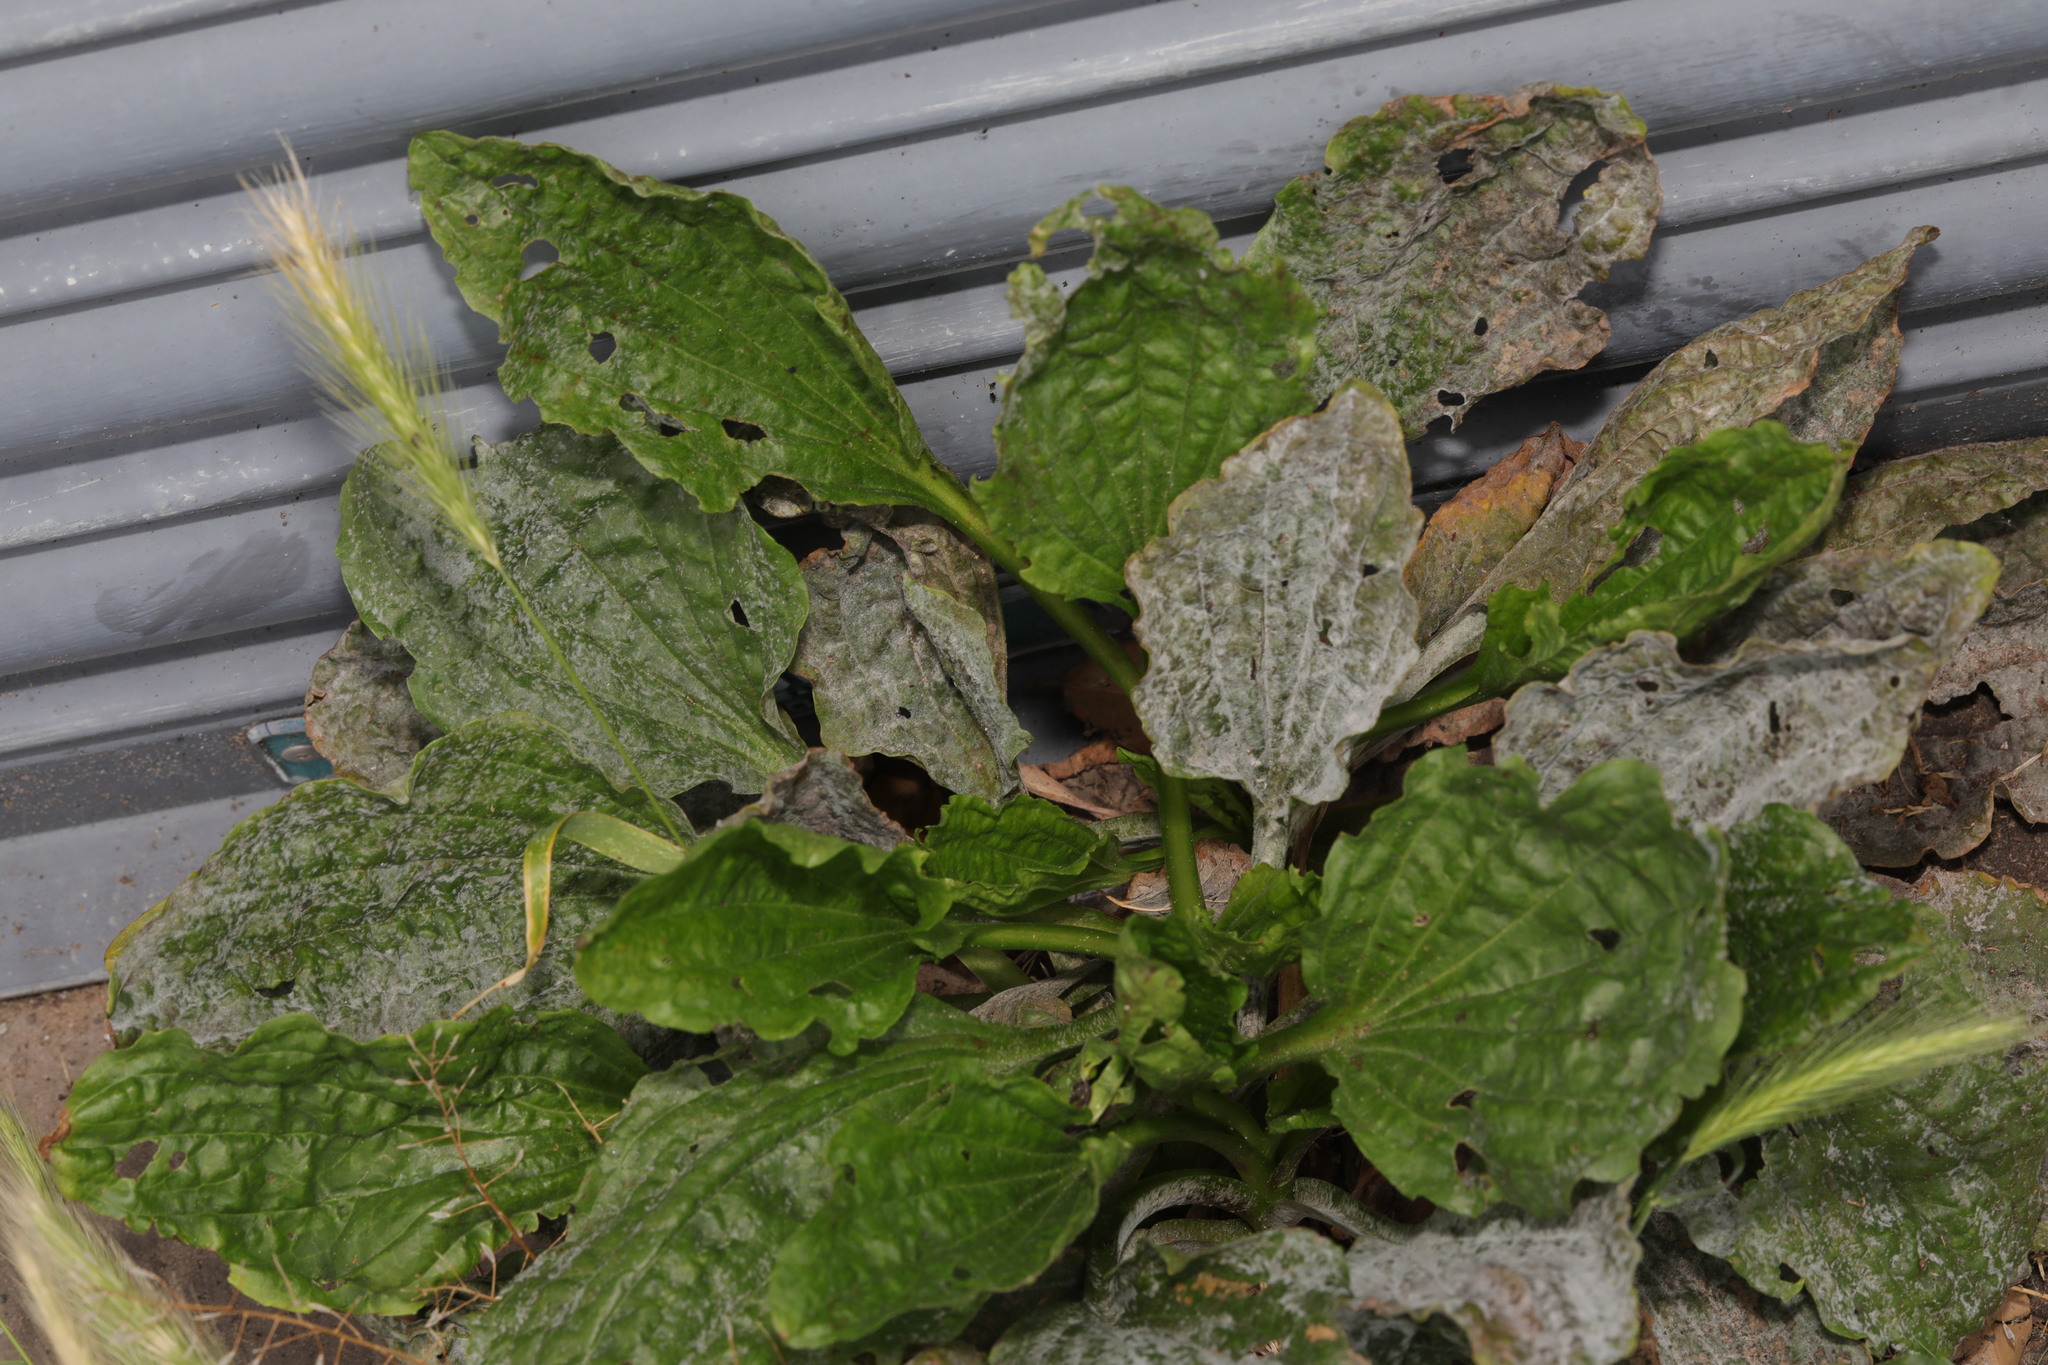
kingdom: Plantae
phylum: Tracheophyta
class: Magnoliopsida
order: Lamiales
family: Plantaginaceae
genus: Plantago
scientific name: Plantago major
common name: Common plantain
